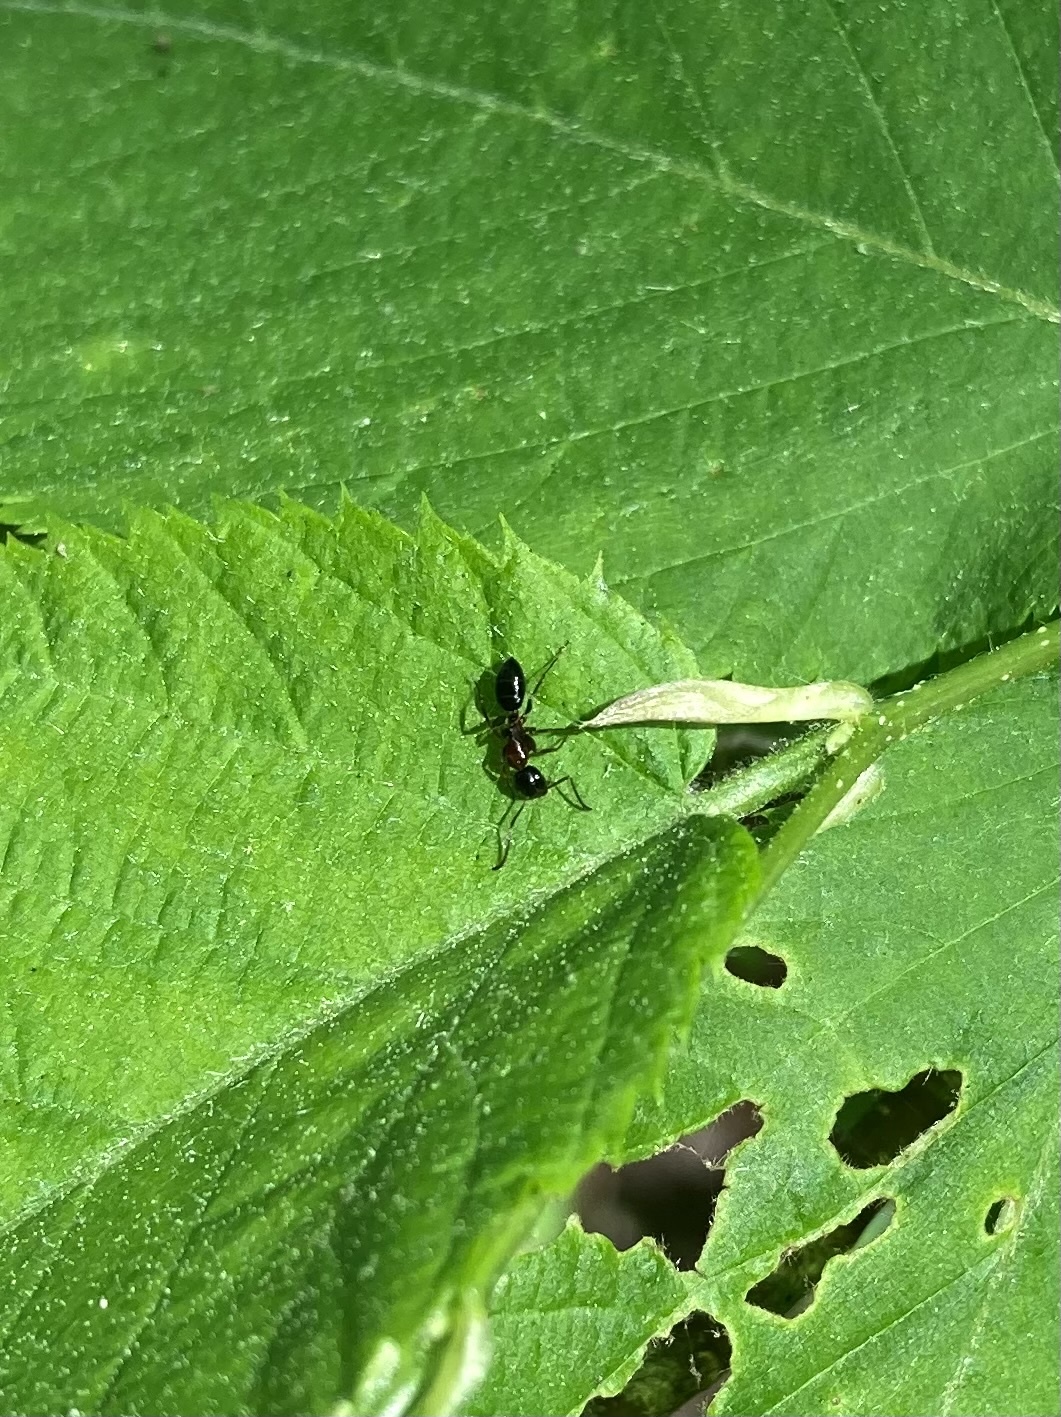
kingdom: Animalia
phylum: Arthropoda
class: Insecta
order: Hymenoptera
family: Formicidae
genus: Camponotus
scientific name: Camponotus nearcticus
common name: Smaller carpenter ant
